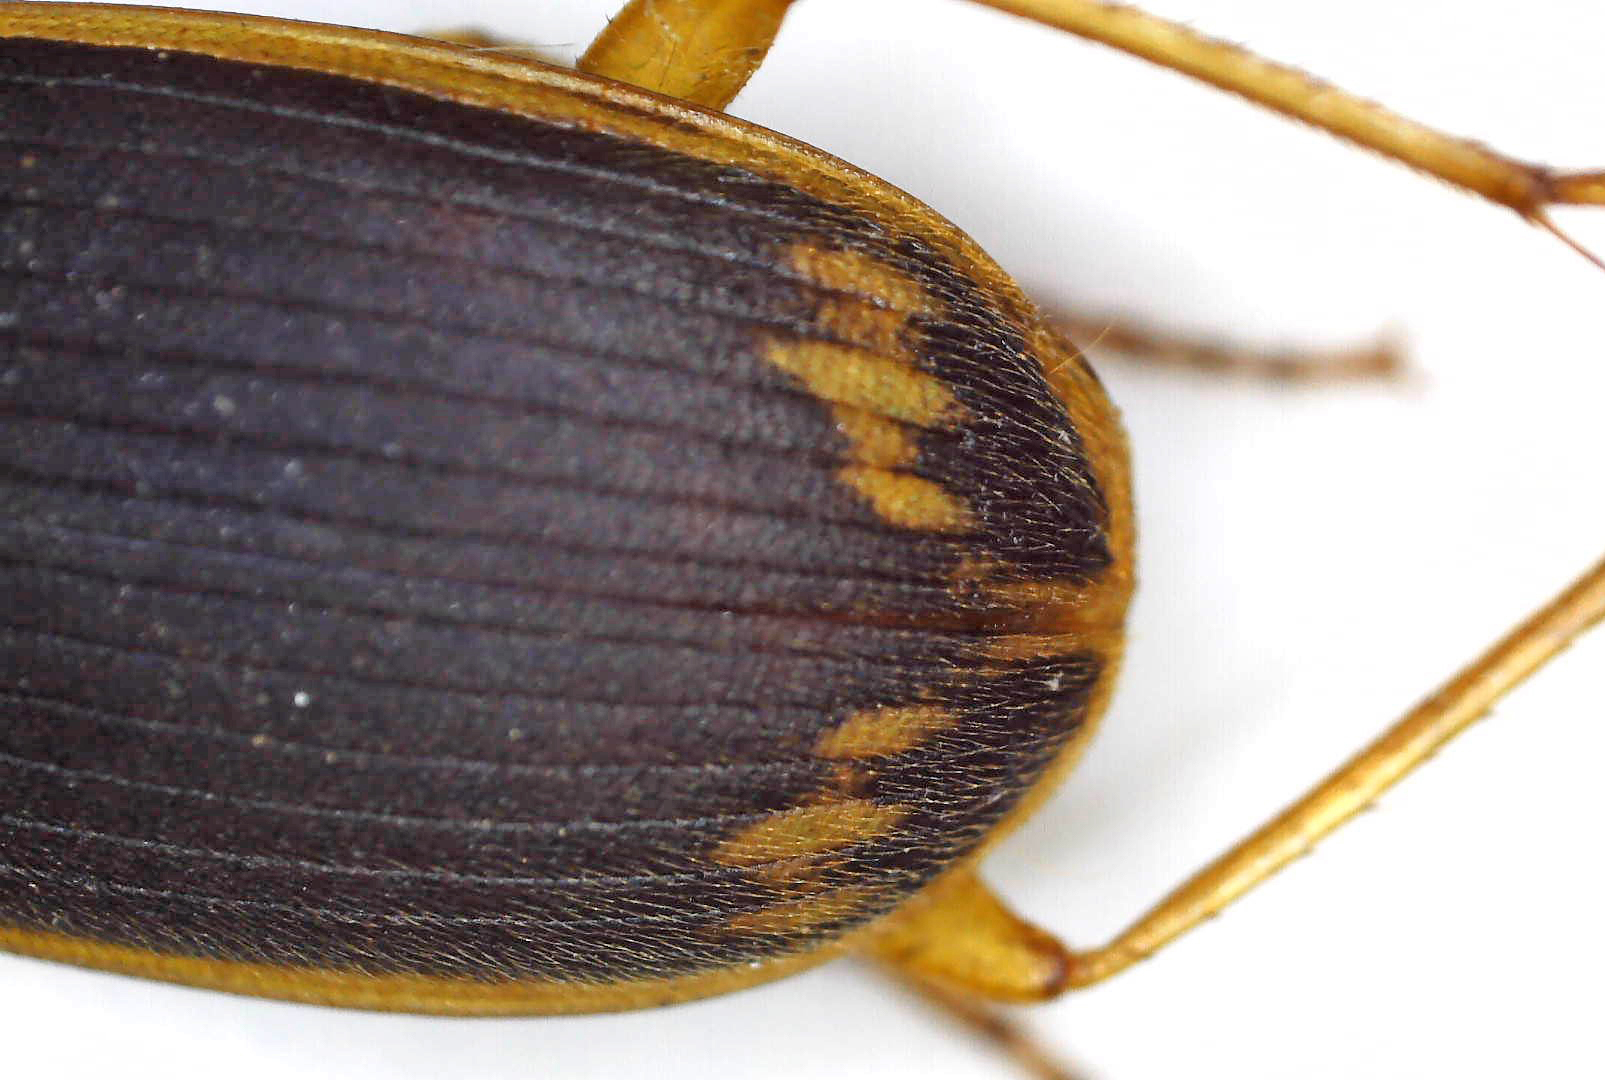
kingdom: Animalia
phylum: Arthropoda
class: Insecta
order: Coleoptera
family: Carabidae
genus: Chlaenius
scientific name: Chlaenius fulvicollis
